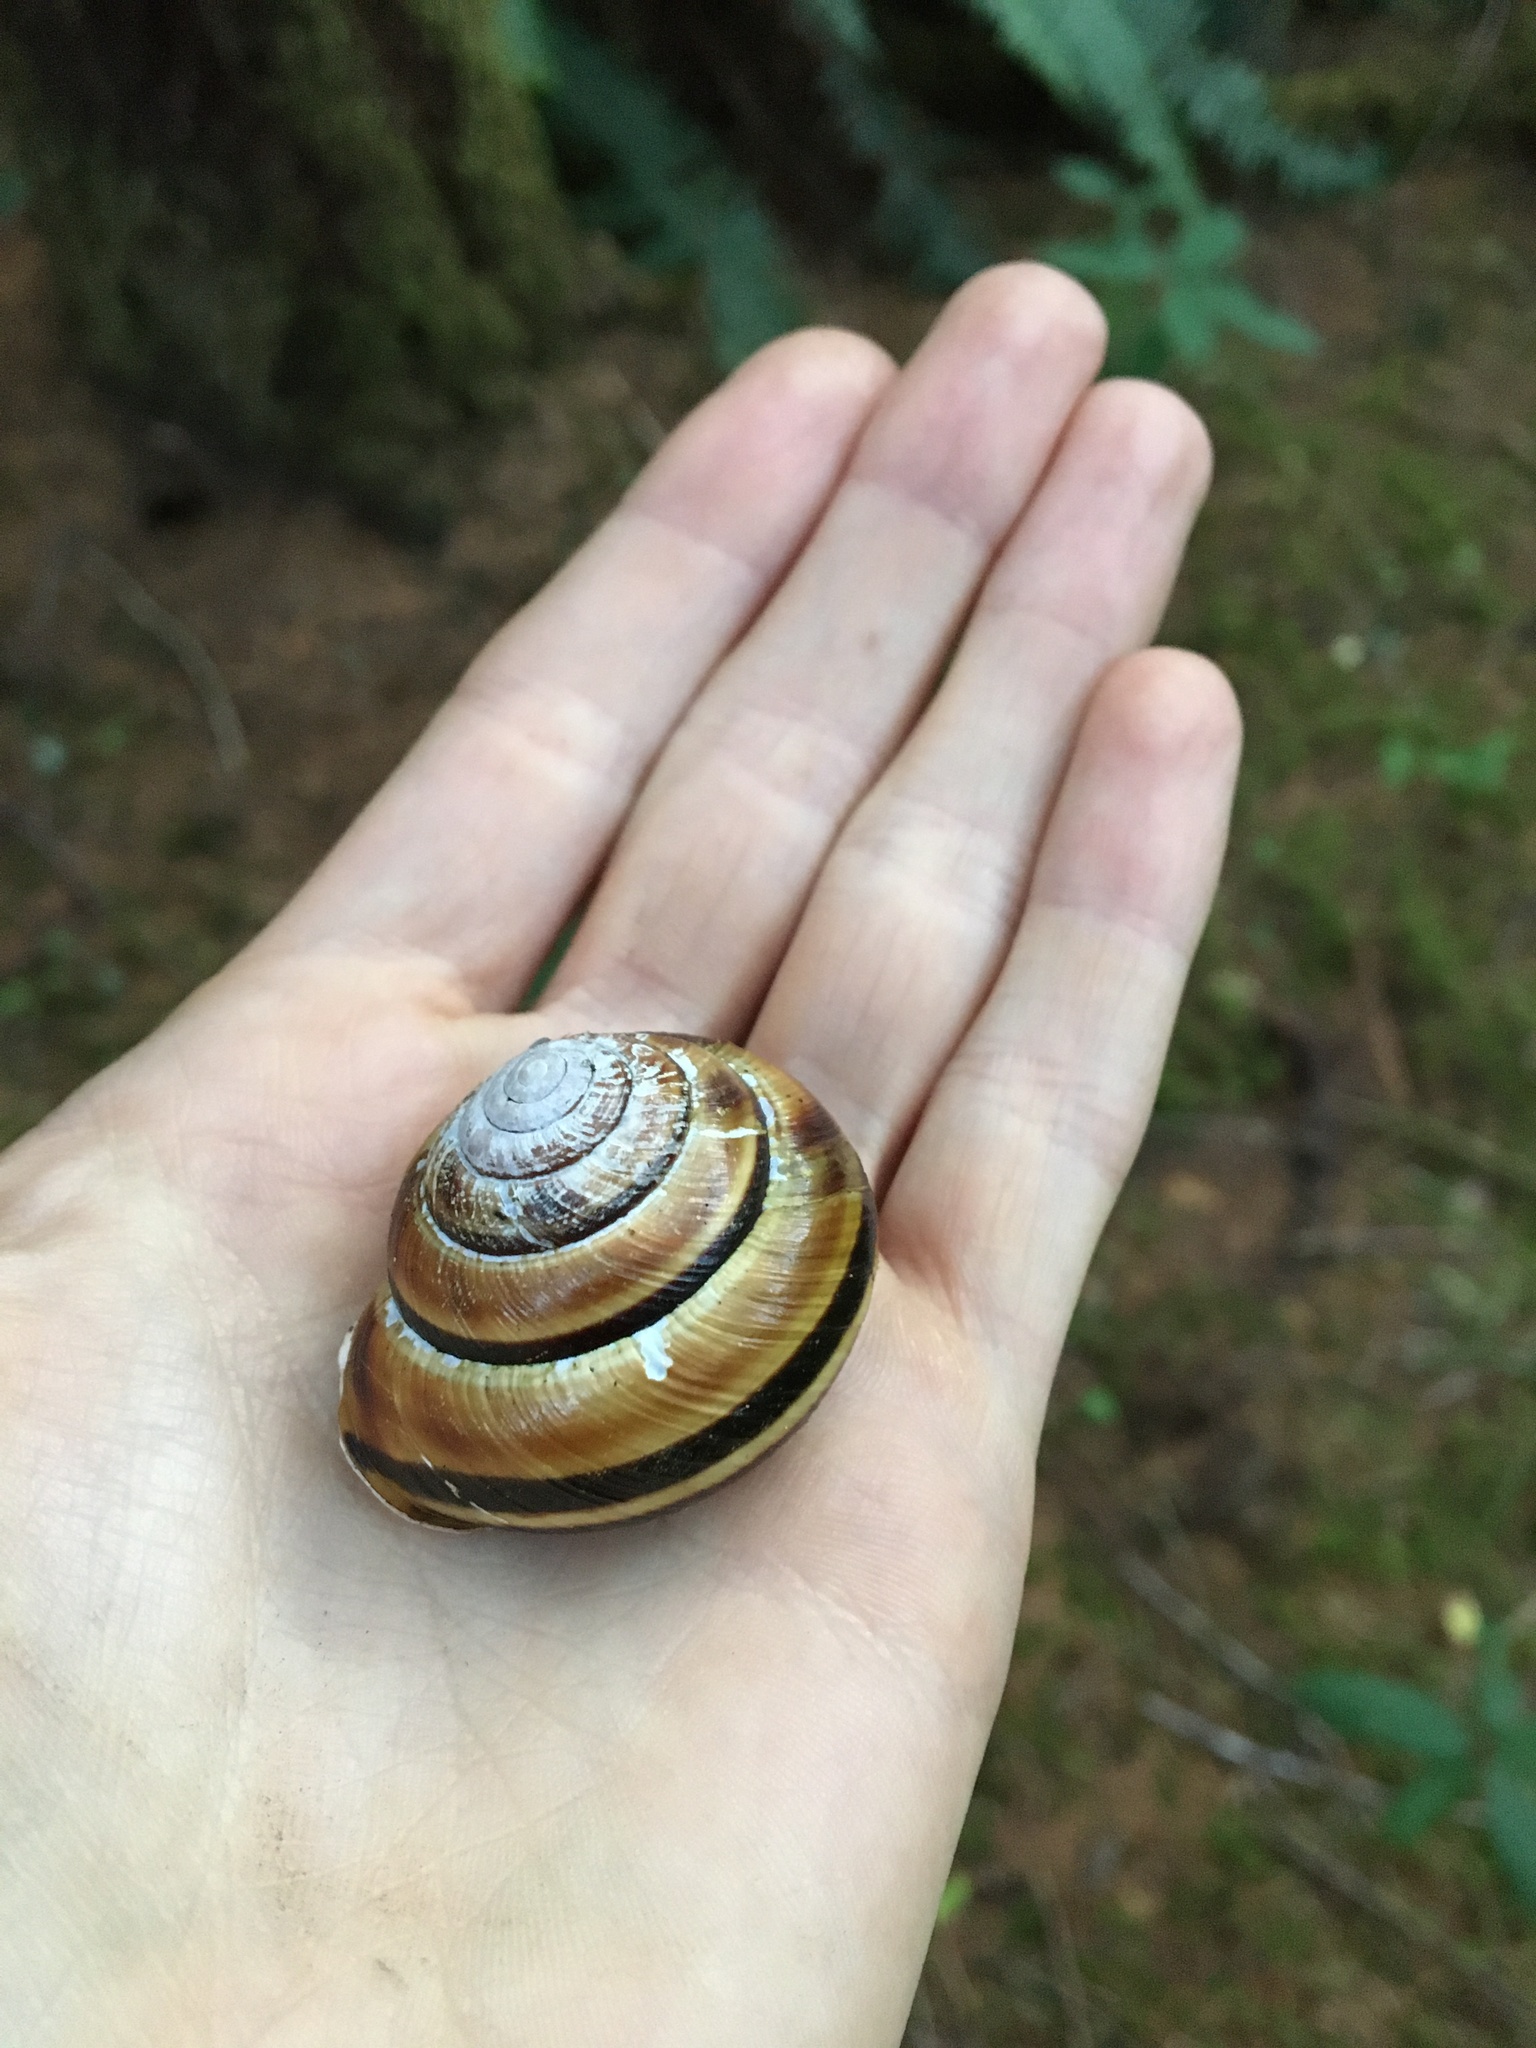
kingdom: Animalia
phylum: Mollusca
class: Gastropoda
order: Stylommatophora
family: Xanthonychidae
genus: Monadenia
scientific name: Monadenia fidelis
